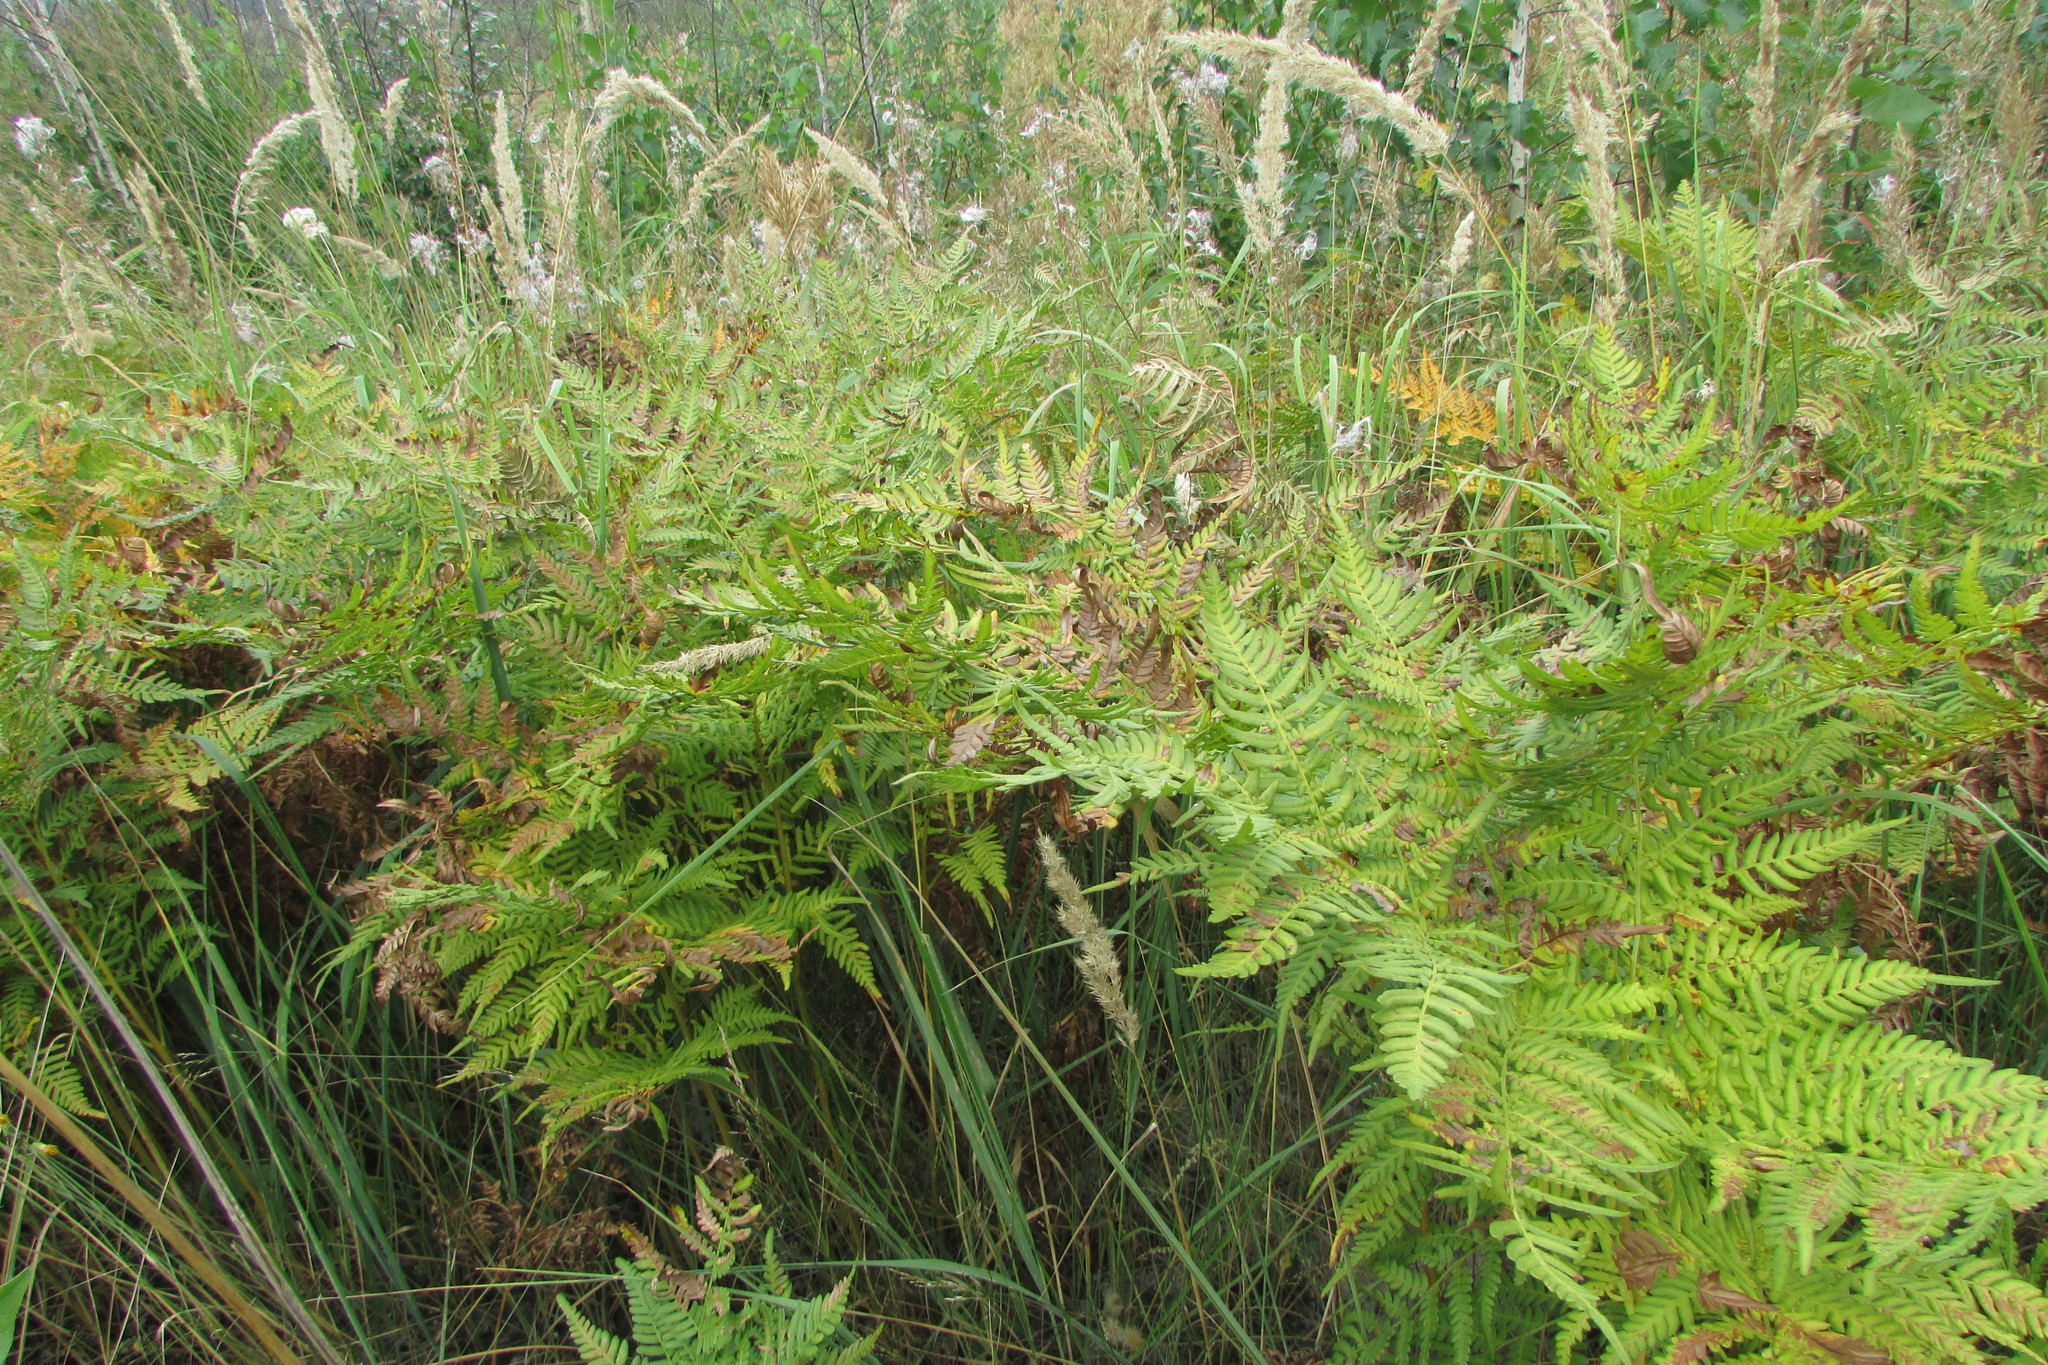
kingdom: Plantae
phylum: Tracheophyta
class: Polypodiopsida
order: Polypodiales
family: Dennstaedtiaceae
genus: Pteridium
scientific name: Pteridium aquilinum
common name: Bracken
